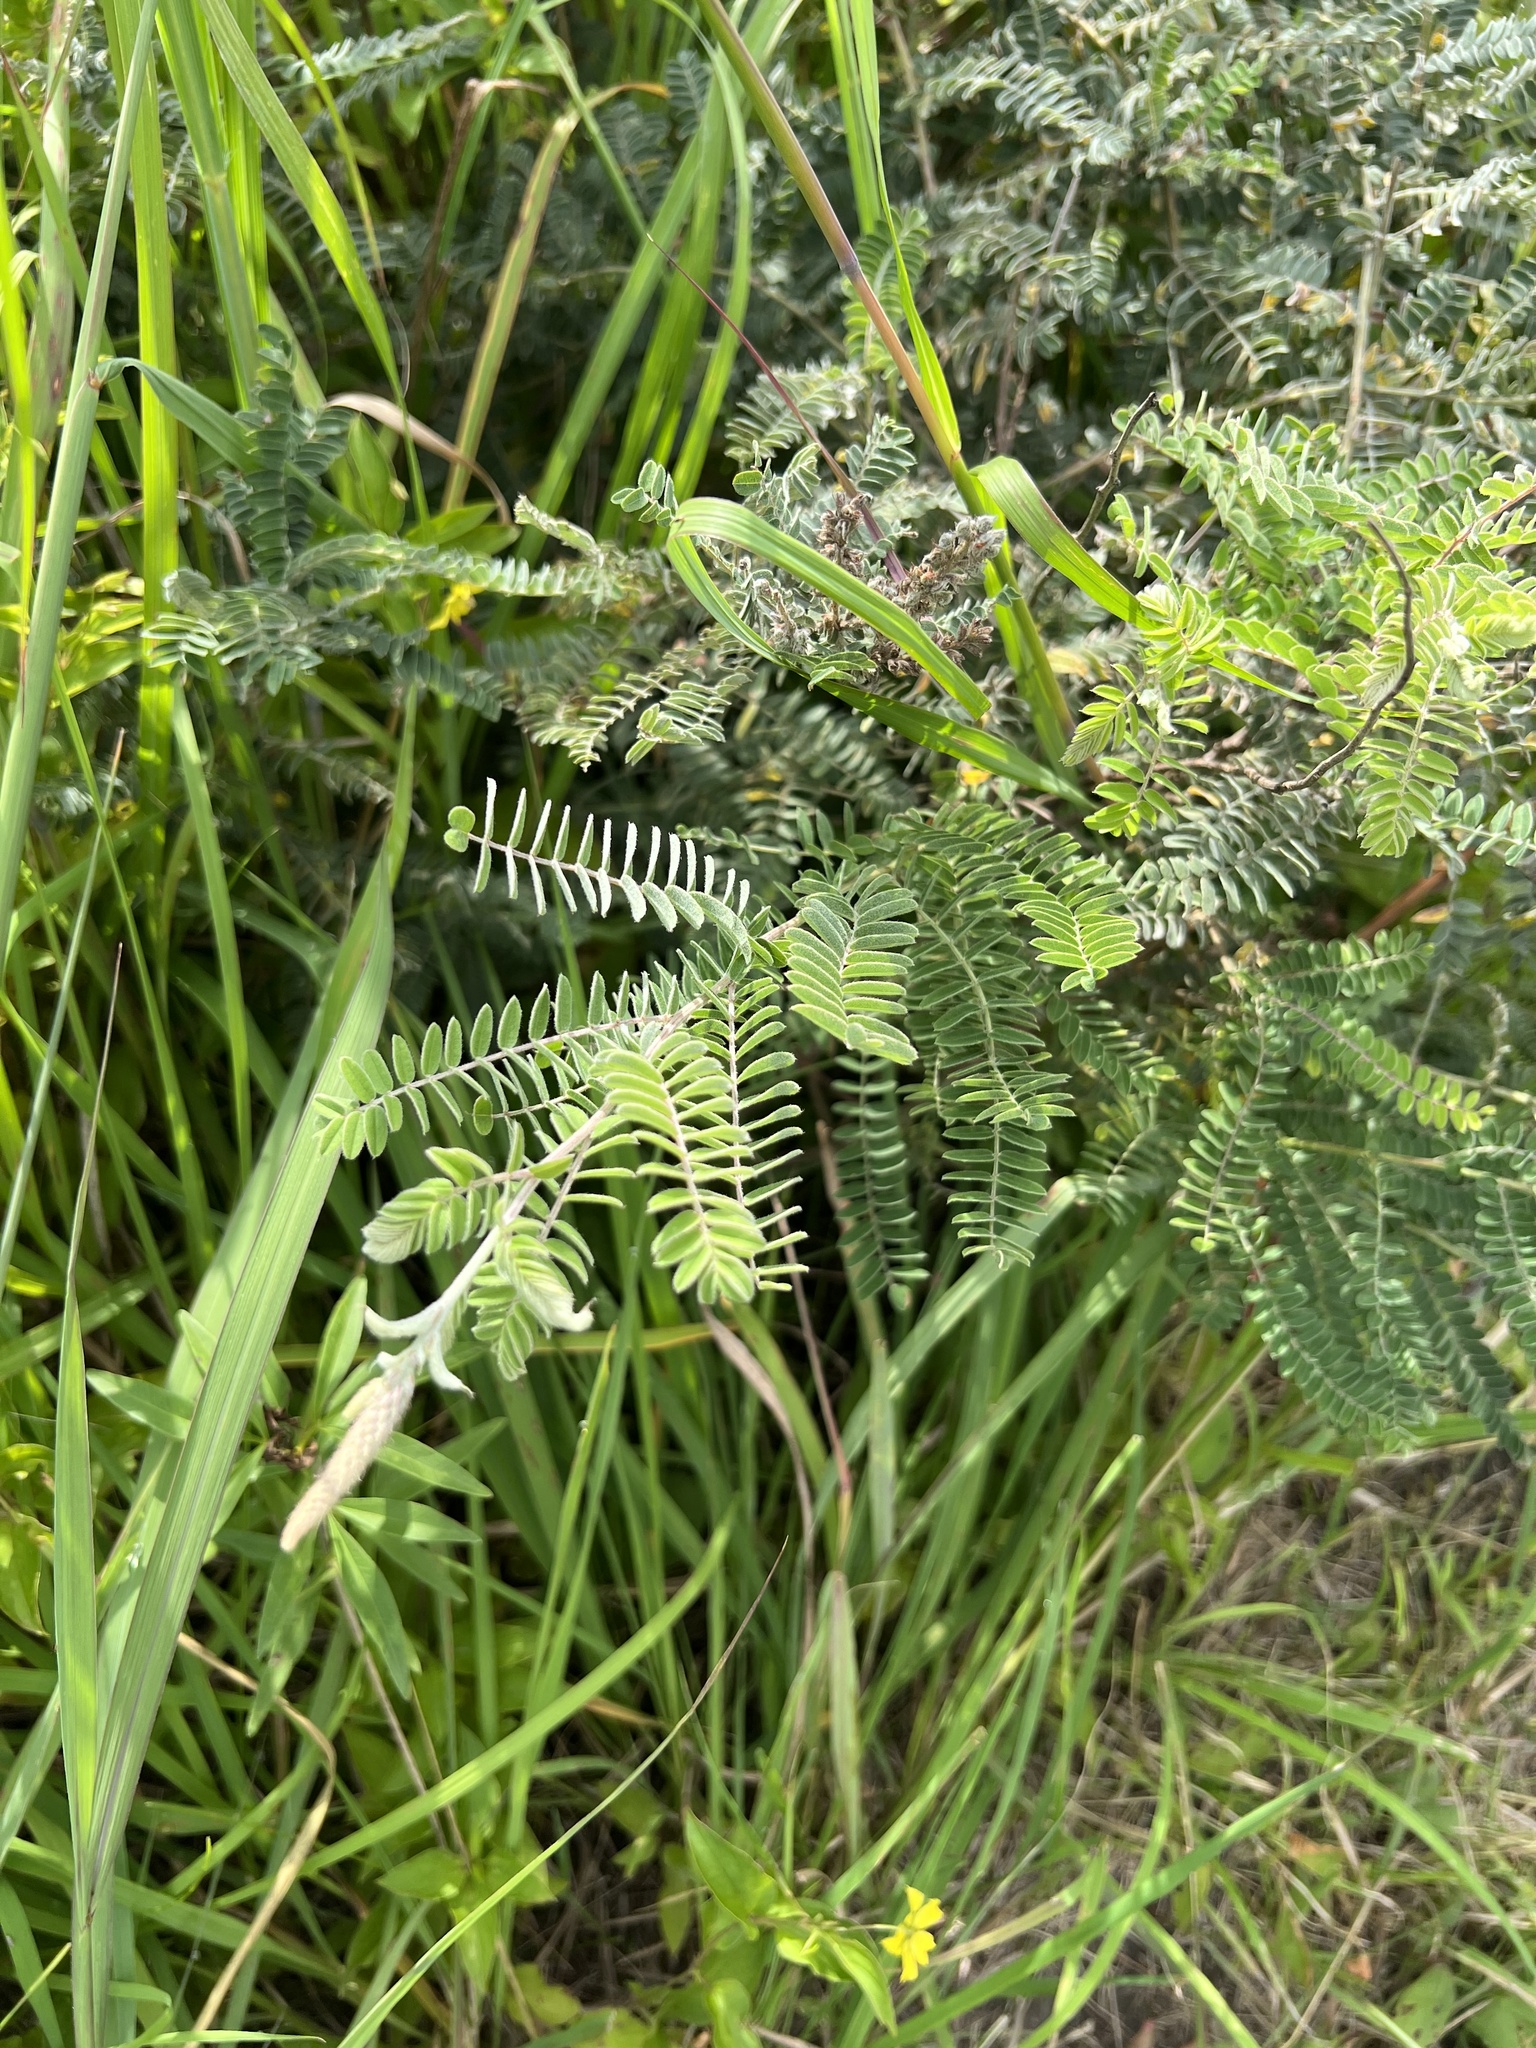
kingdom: Plantae
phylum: Tracheophyta
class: Magnoliopsida
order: Fabales
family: Fabaceae
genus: Amorpha
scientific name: Amorpha canescens
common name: Leadplant
